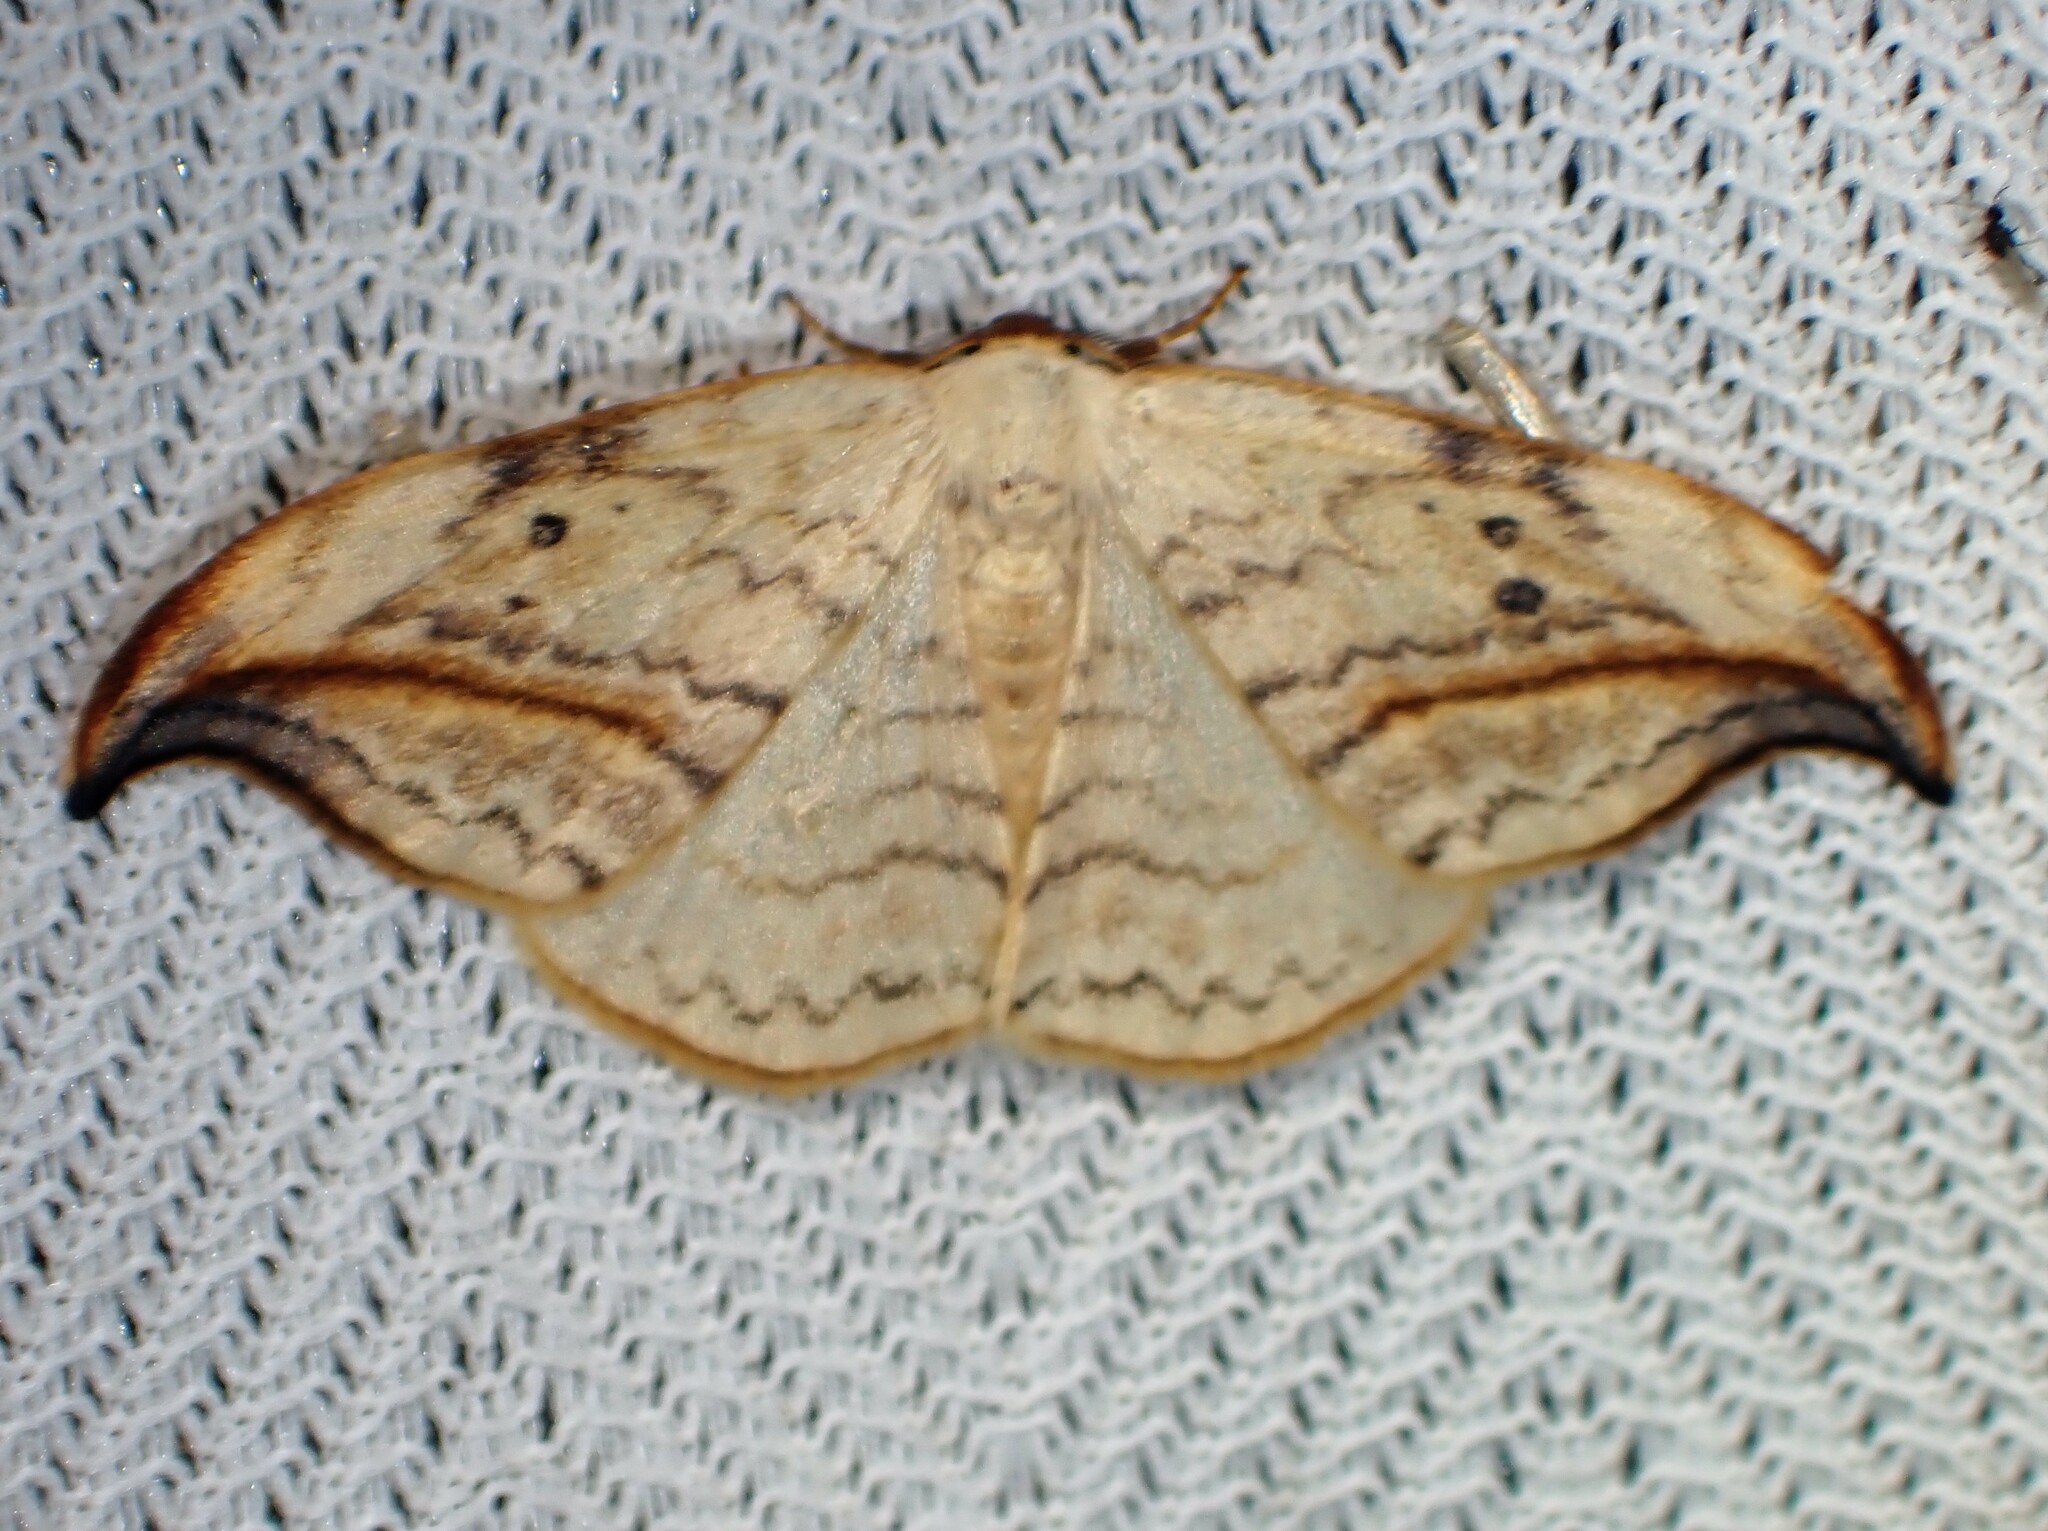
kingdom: Animalia
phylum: Arthropoda
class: Insecta
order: Lepidoptera
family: Drepanidae
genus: Drepana
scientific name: Drepana arcuata
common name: Arched hooktip moth
